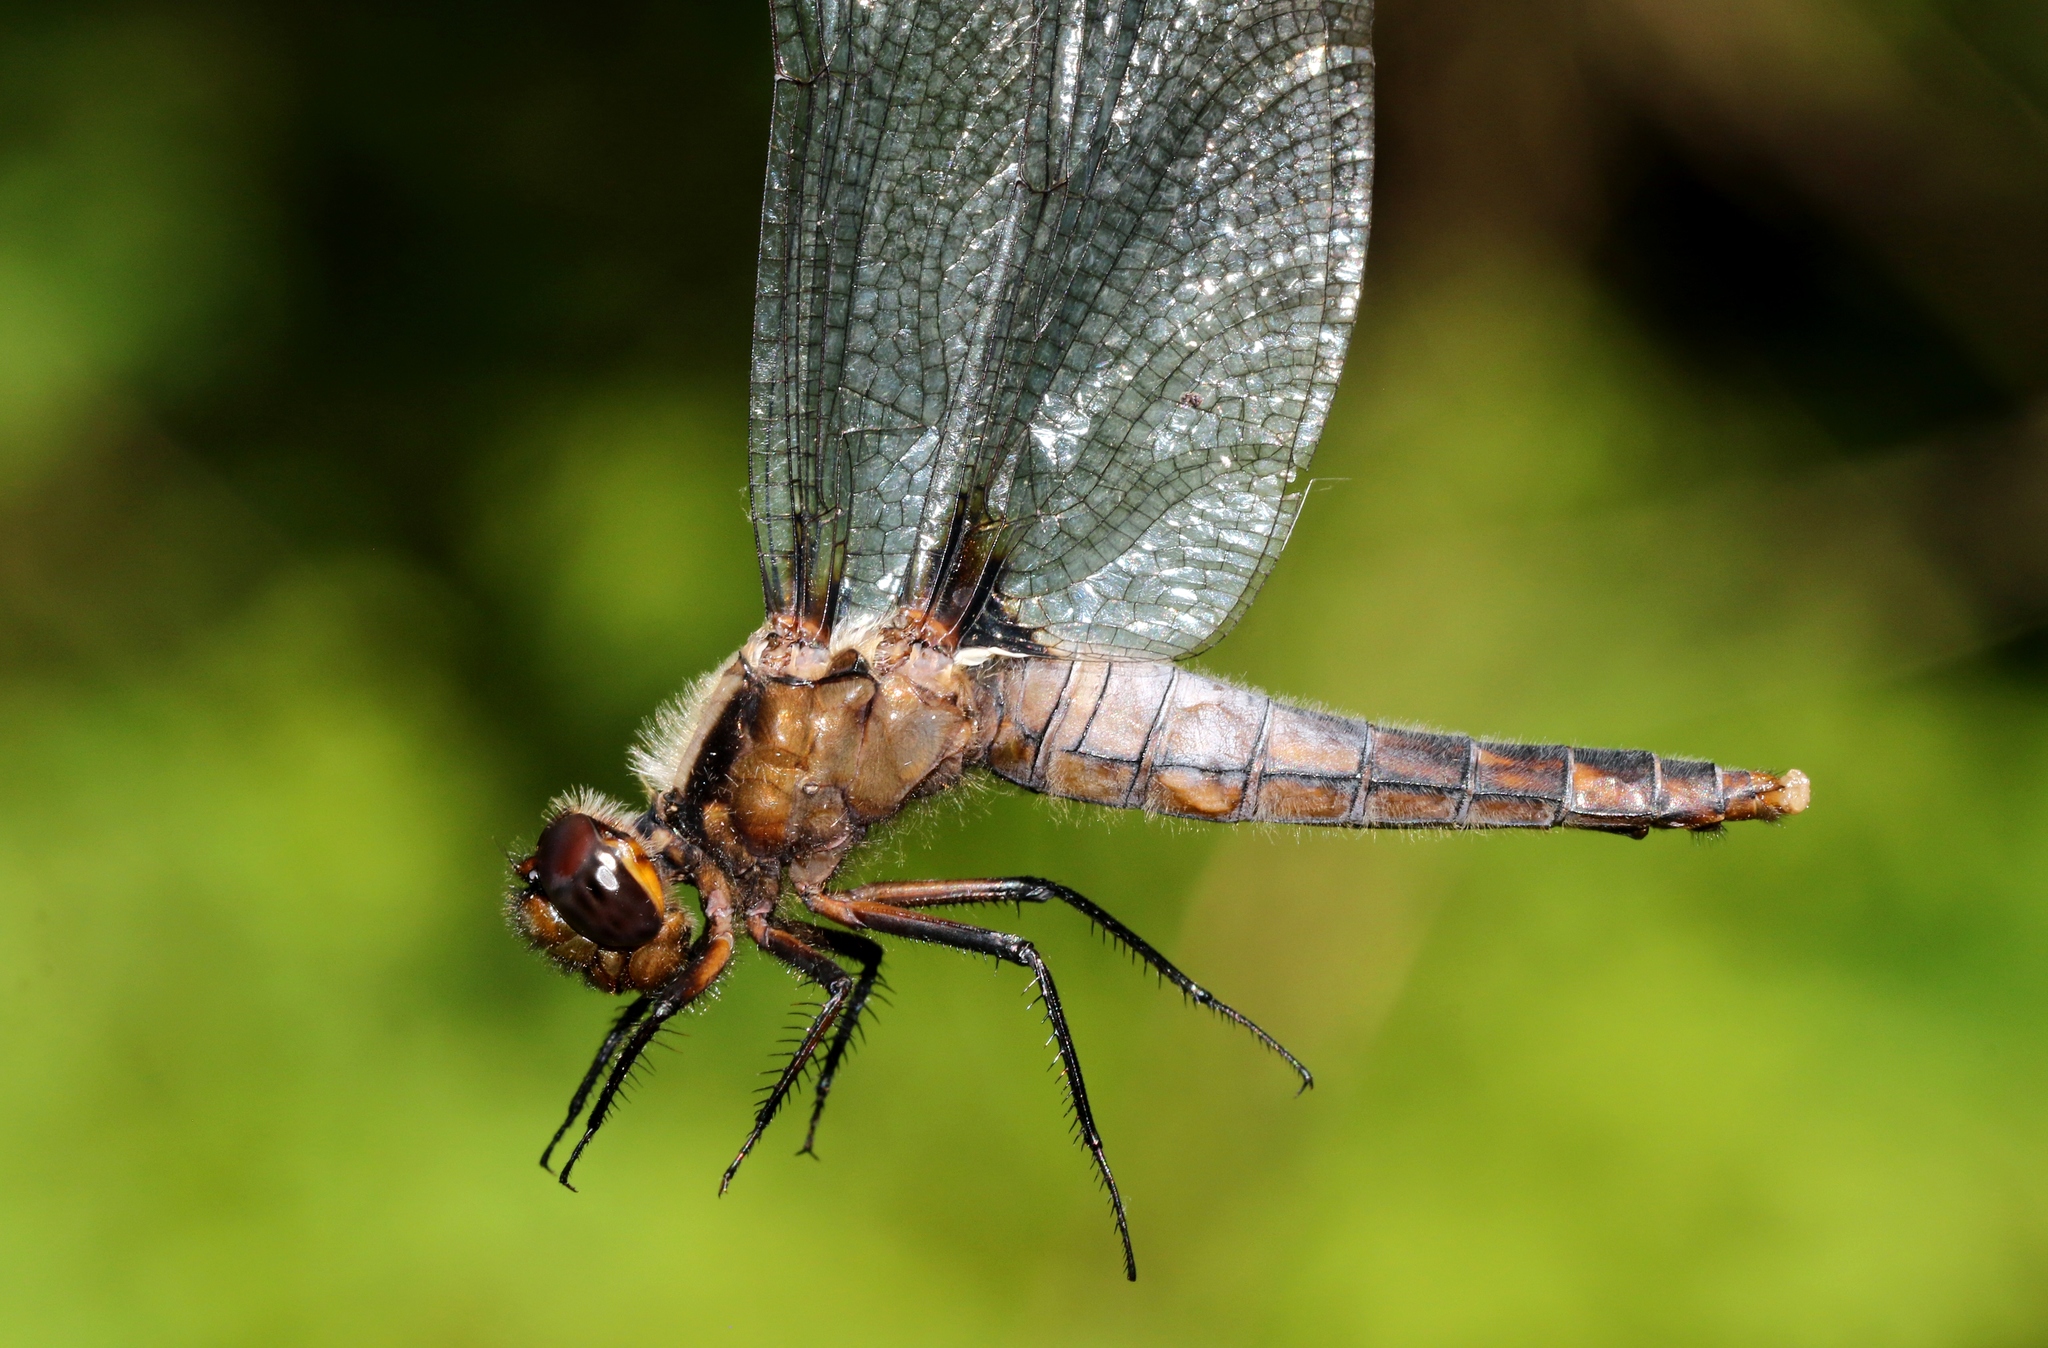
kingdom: Animalia
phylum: Arthropoda
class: Insecta
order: Odonata
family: Libellulidae
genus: Ladona
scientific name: Ladona julia
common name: Chalk-fronted corporal
